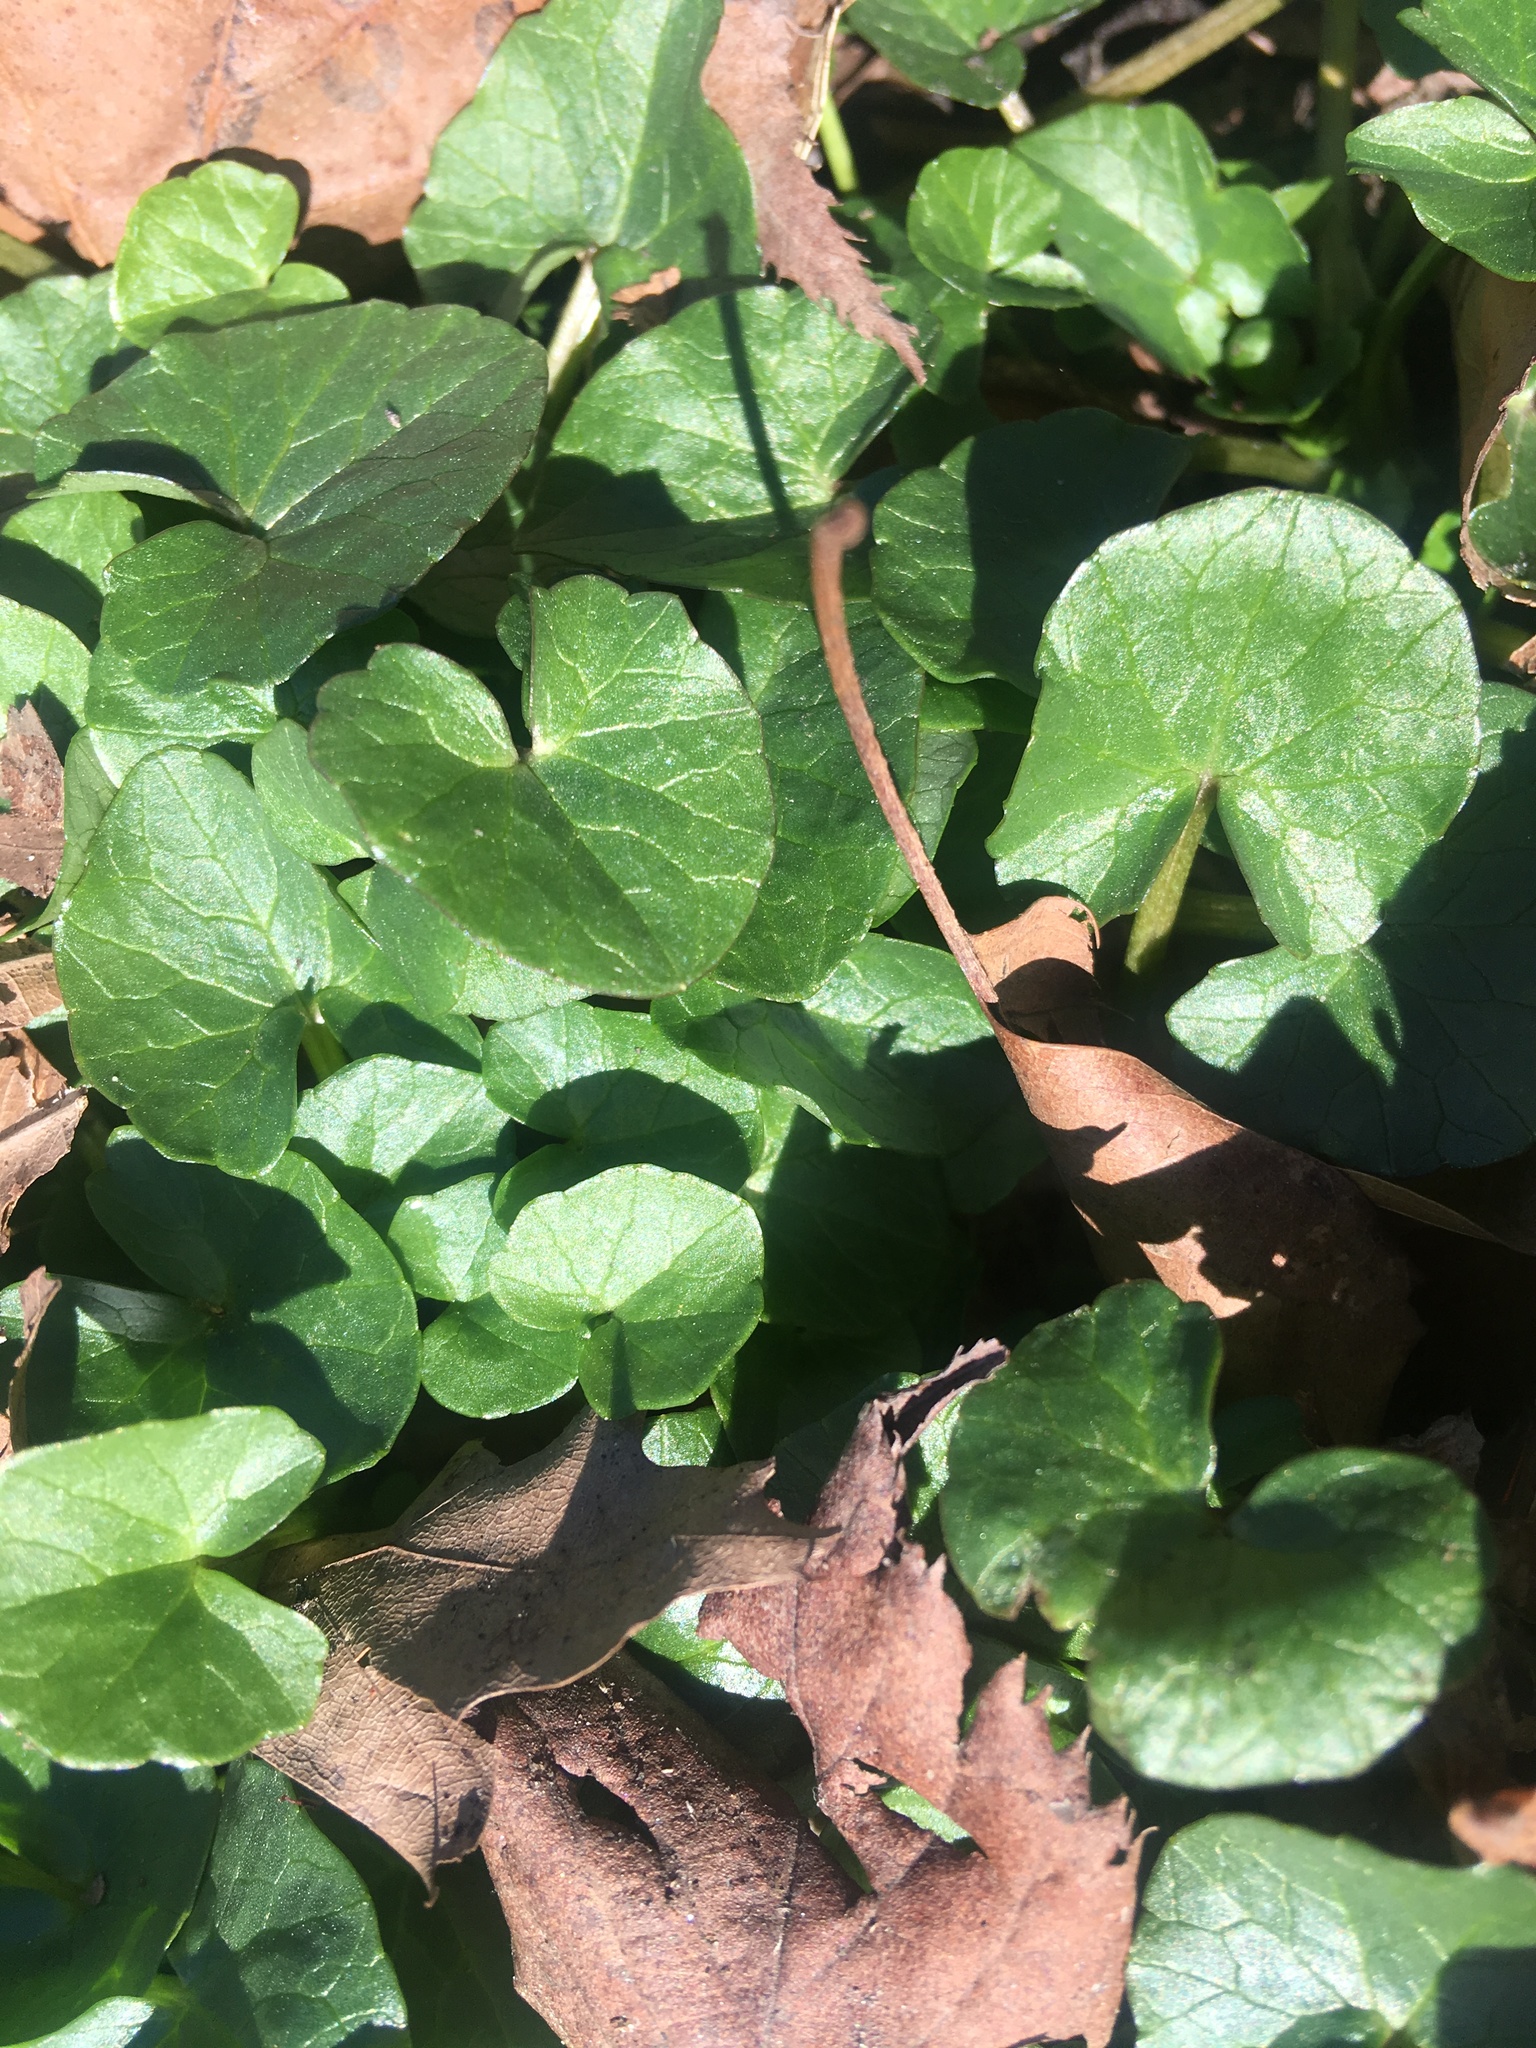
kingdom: Plantae
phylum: Tracheophyta
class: Magnoliopsida
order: Ranunculales
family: Ranunculaceae
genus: Ficaria
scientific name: Ficaria verna
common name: Lesser celandine
